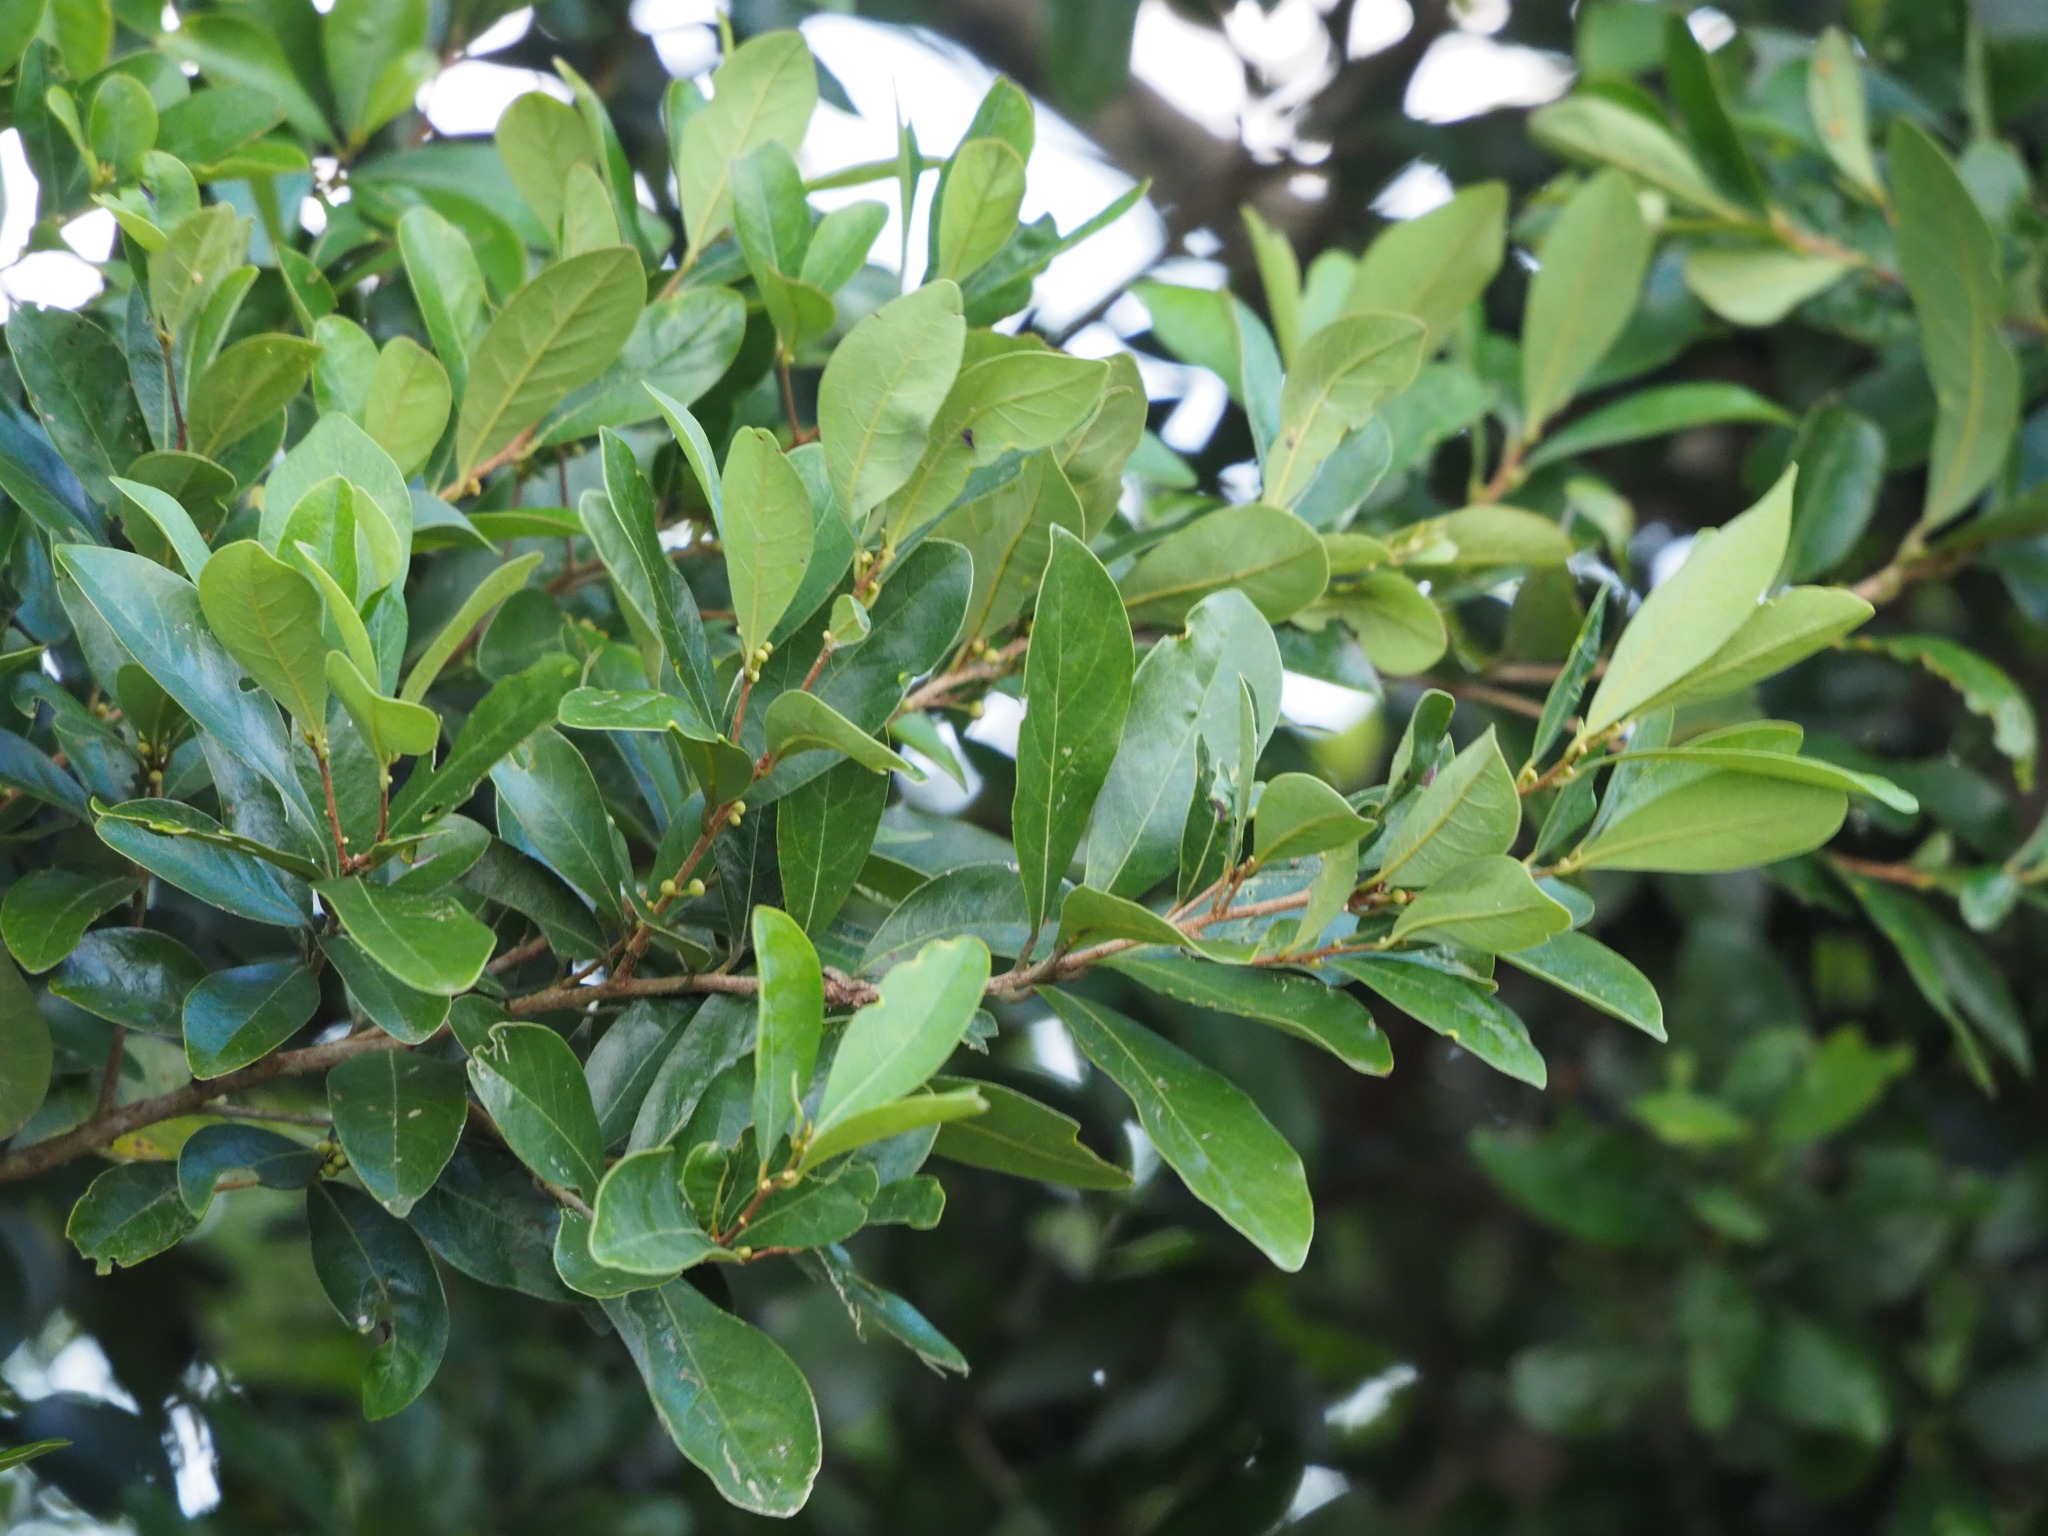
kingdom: Plantae
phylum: Tracheophyta
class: Magnoliopsida
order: Laurales
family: Lauraceae
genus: Litsea
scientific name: Litsea hypophaea
